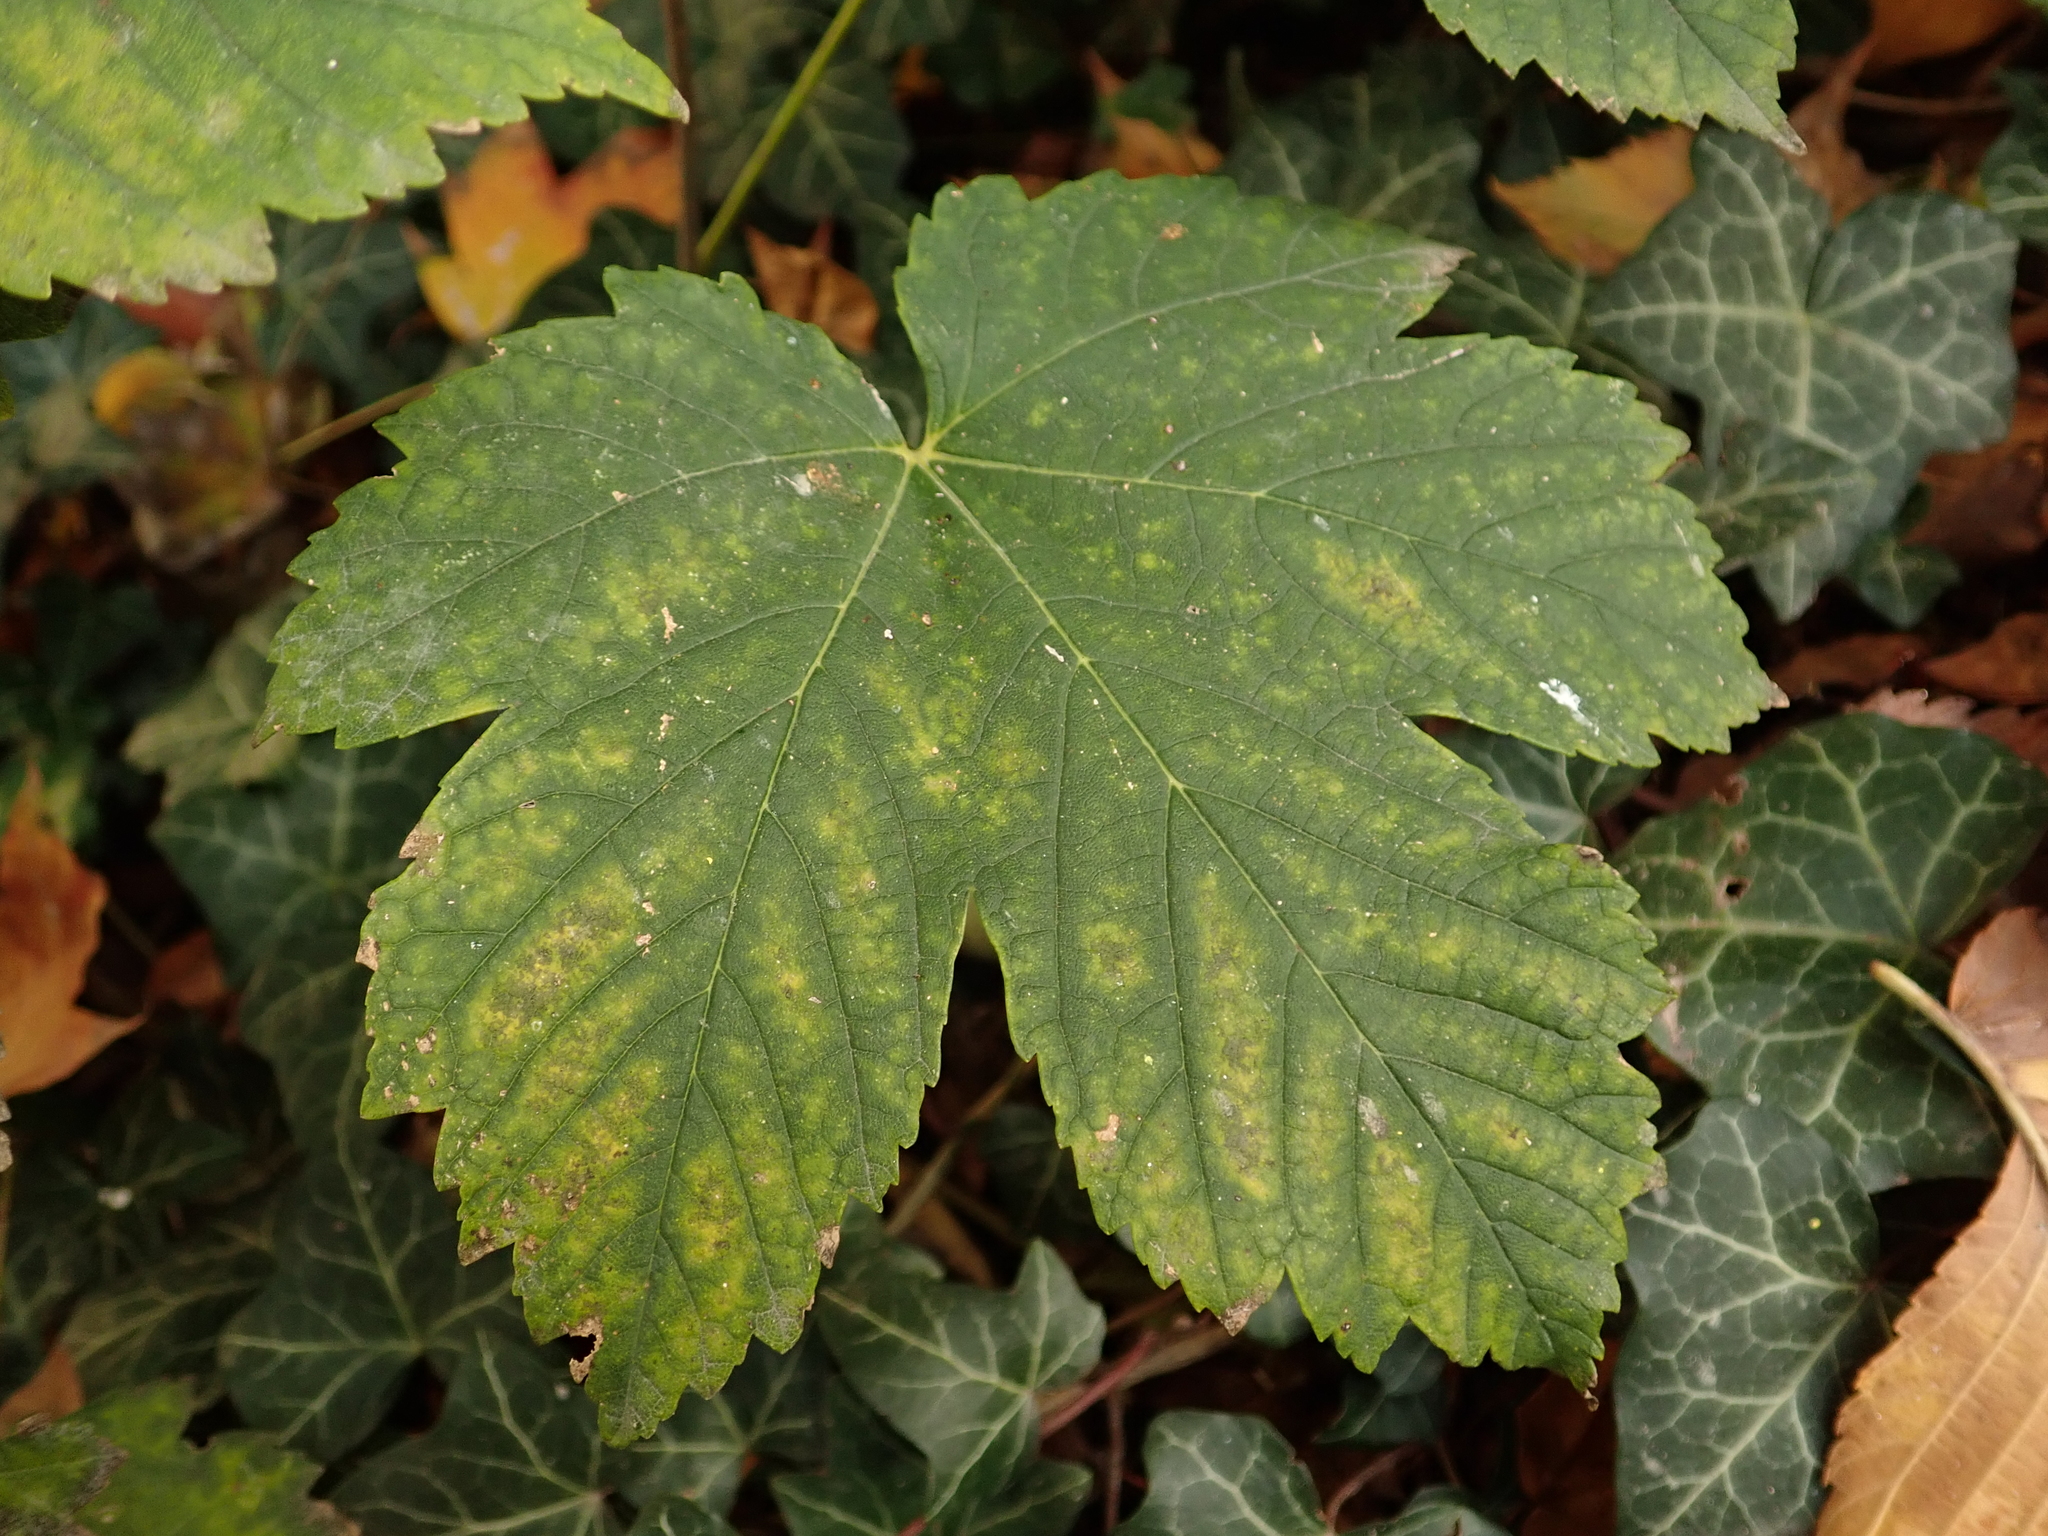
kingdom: Plantae
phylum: Tracheophyta
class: Magnoliopsida
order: Sapindales
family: Sapindaceae
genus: Acer
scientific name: Acer pseudoplatanus
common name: Sycamore
